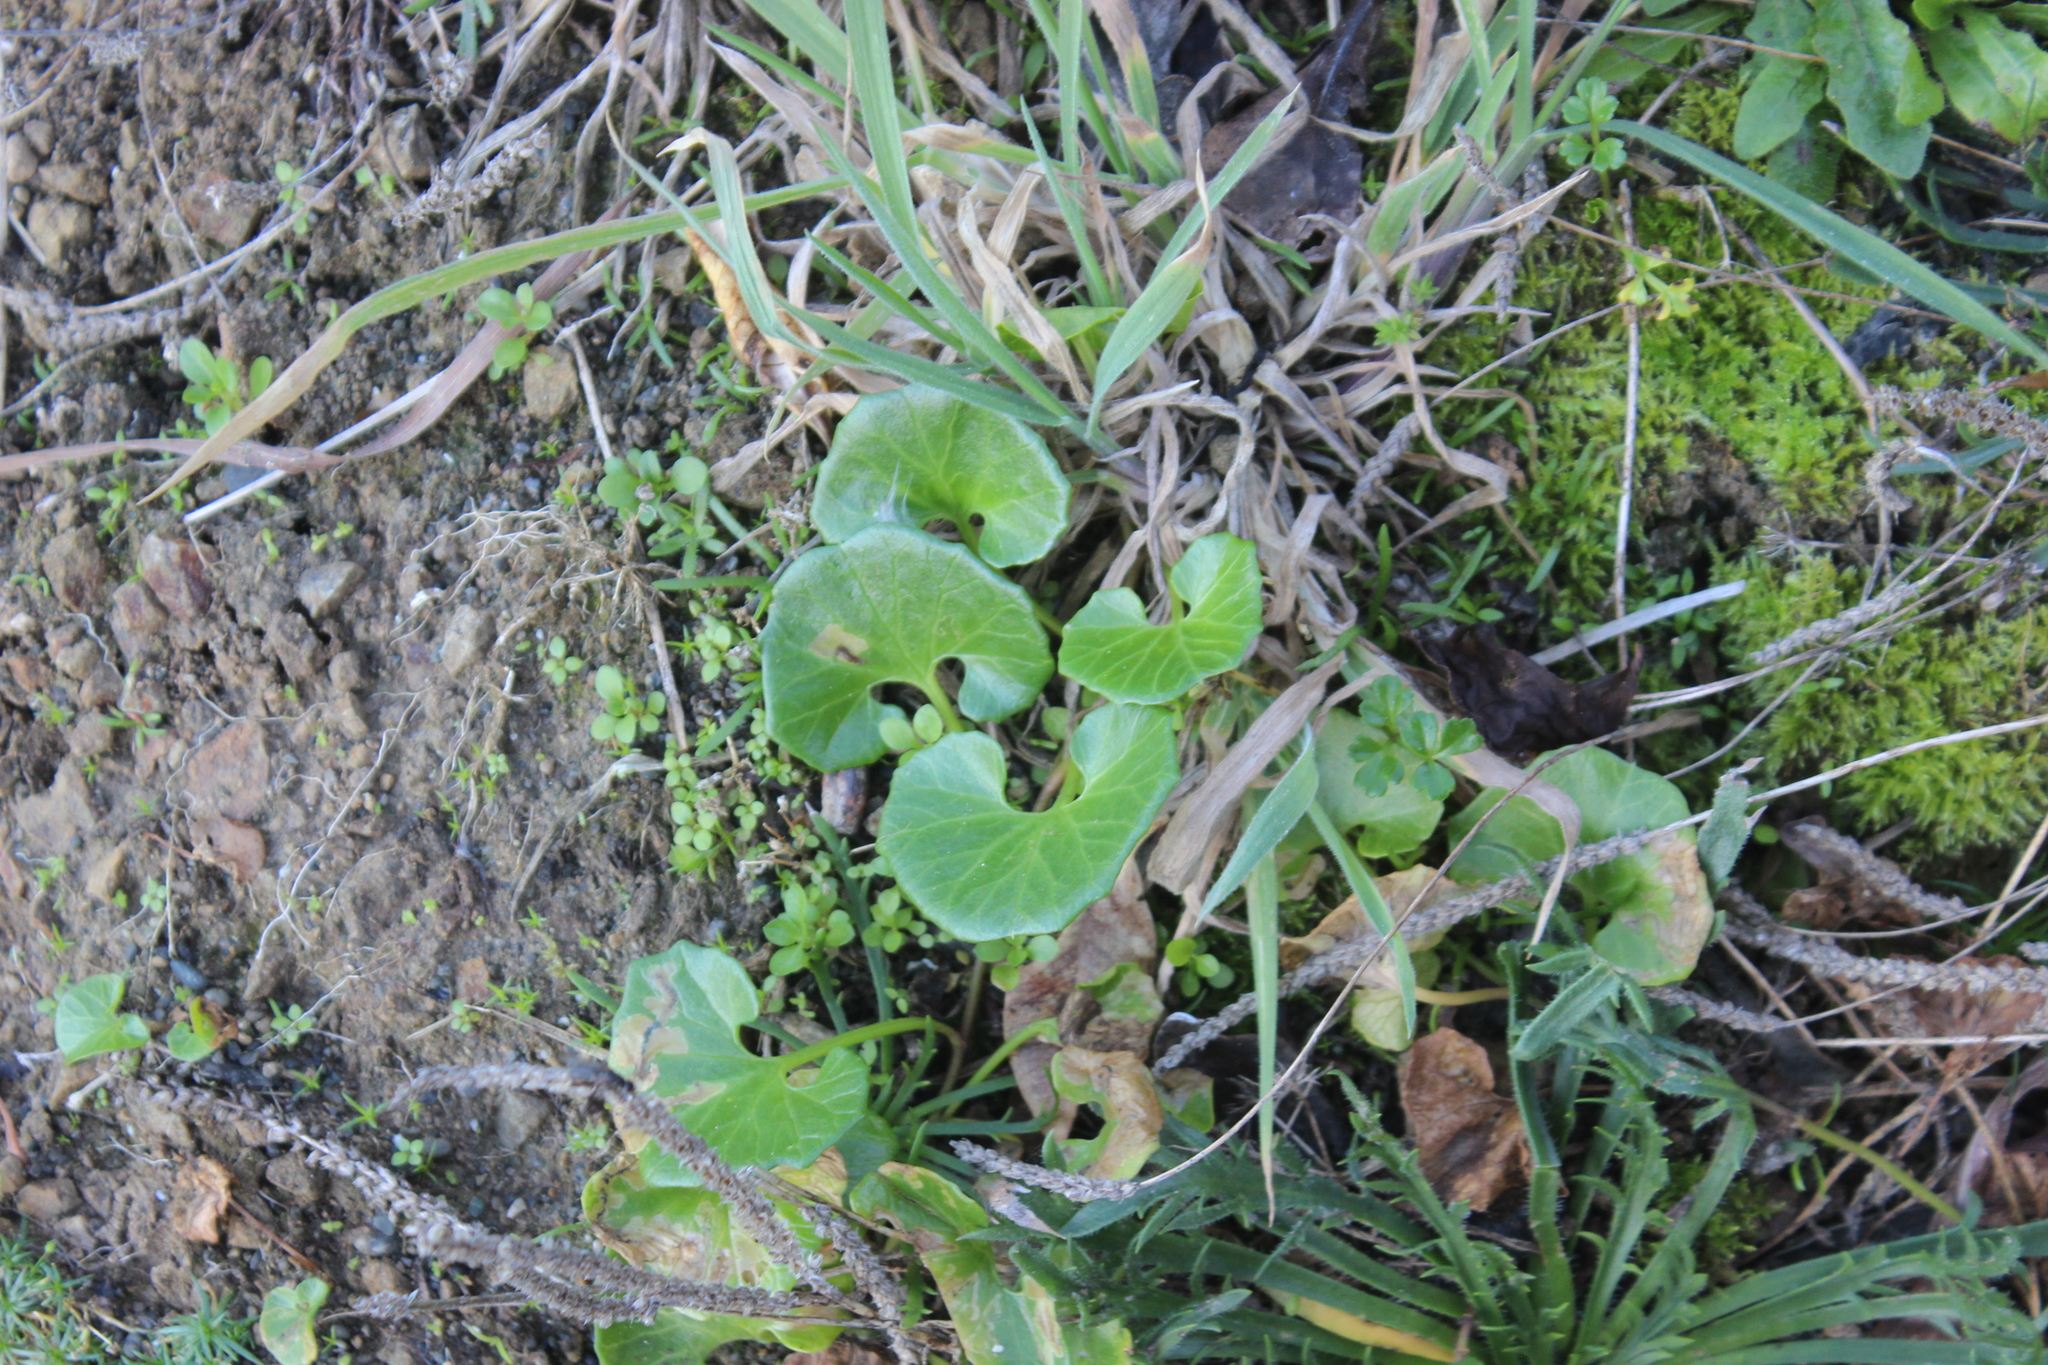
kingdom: Plantae
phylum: Tracheophyta
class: Magnoliopsida
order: Solanales
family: Convolvulaceae
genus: Calystegia
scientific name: Calystegia soldanella
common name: Sea bindweed
